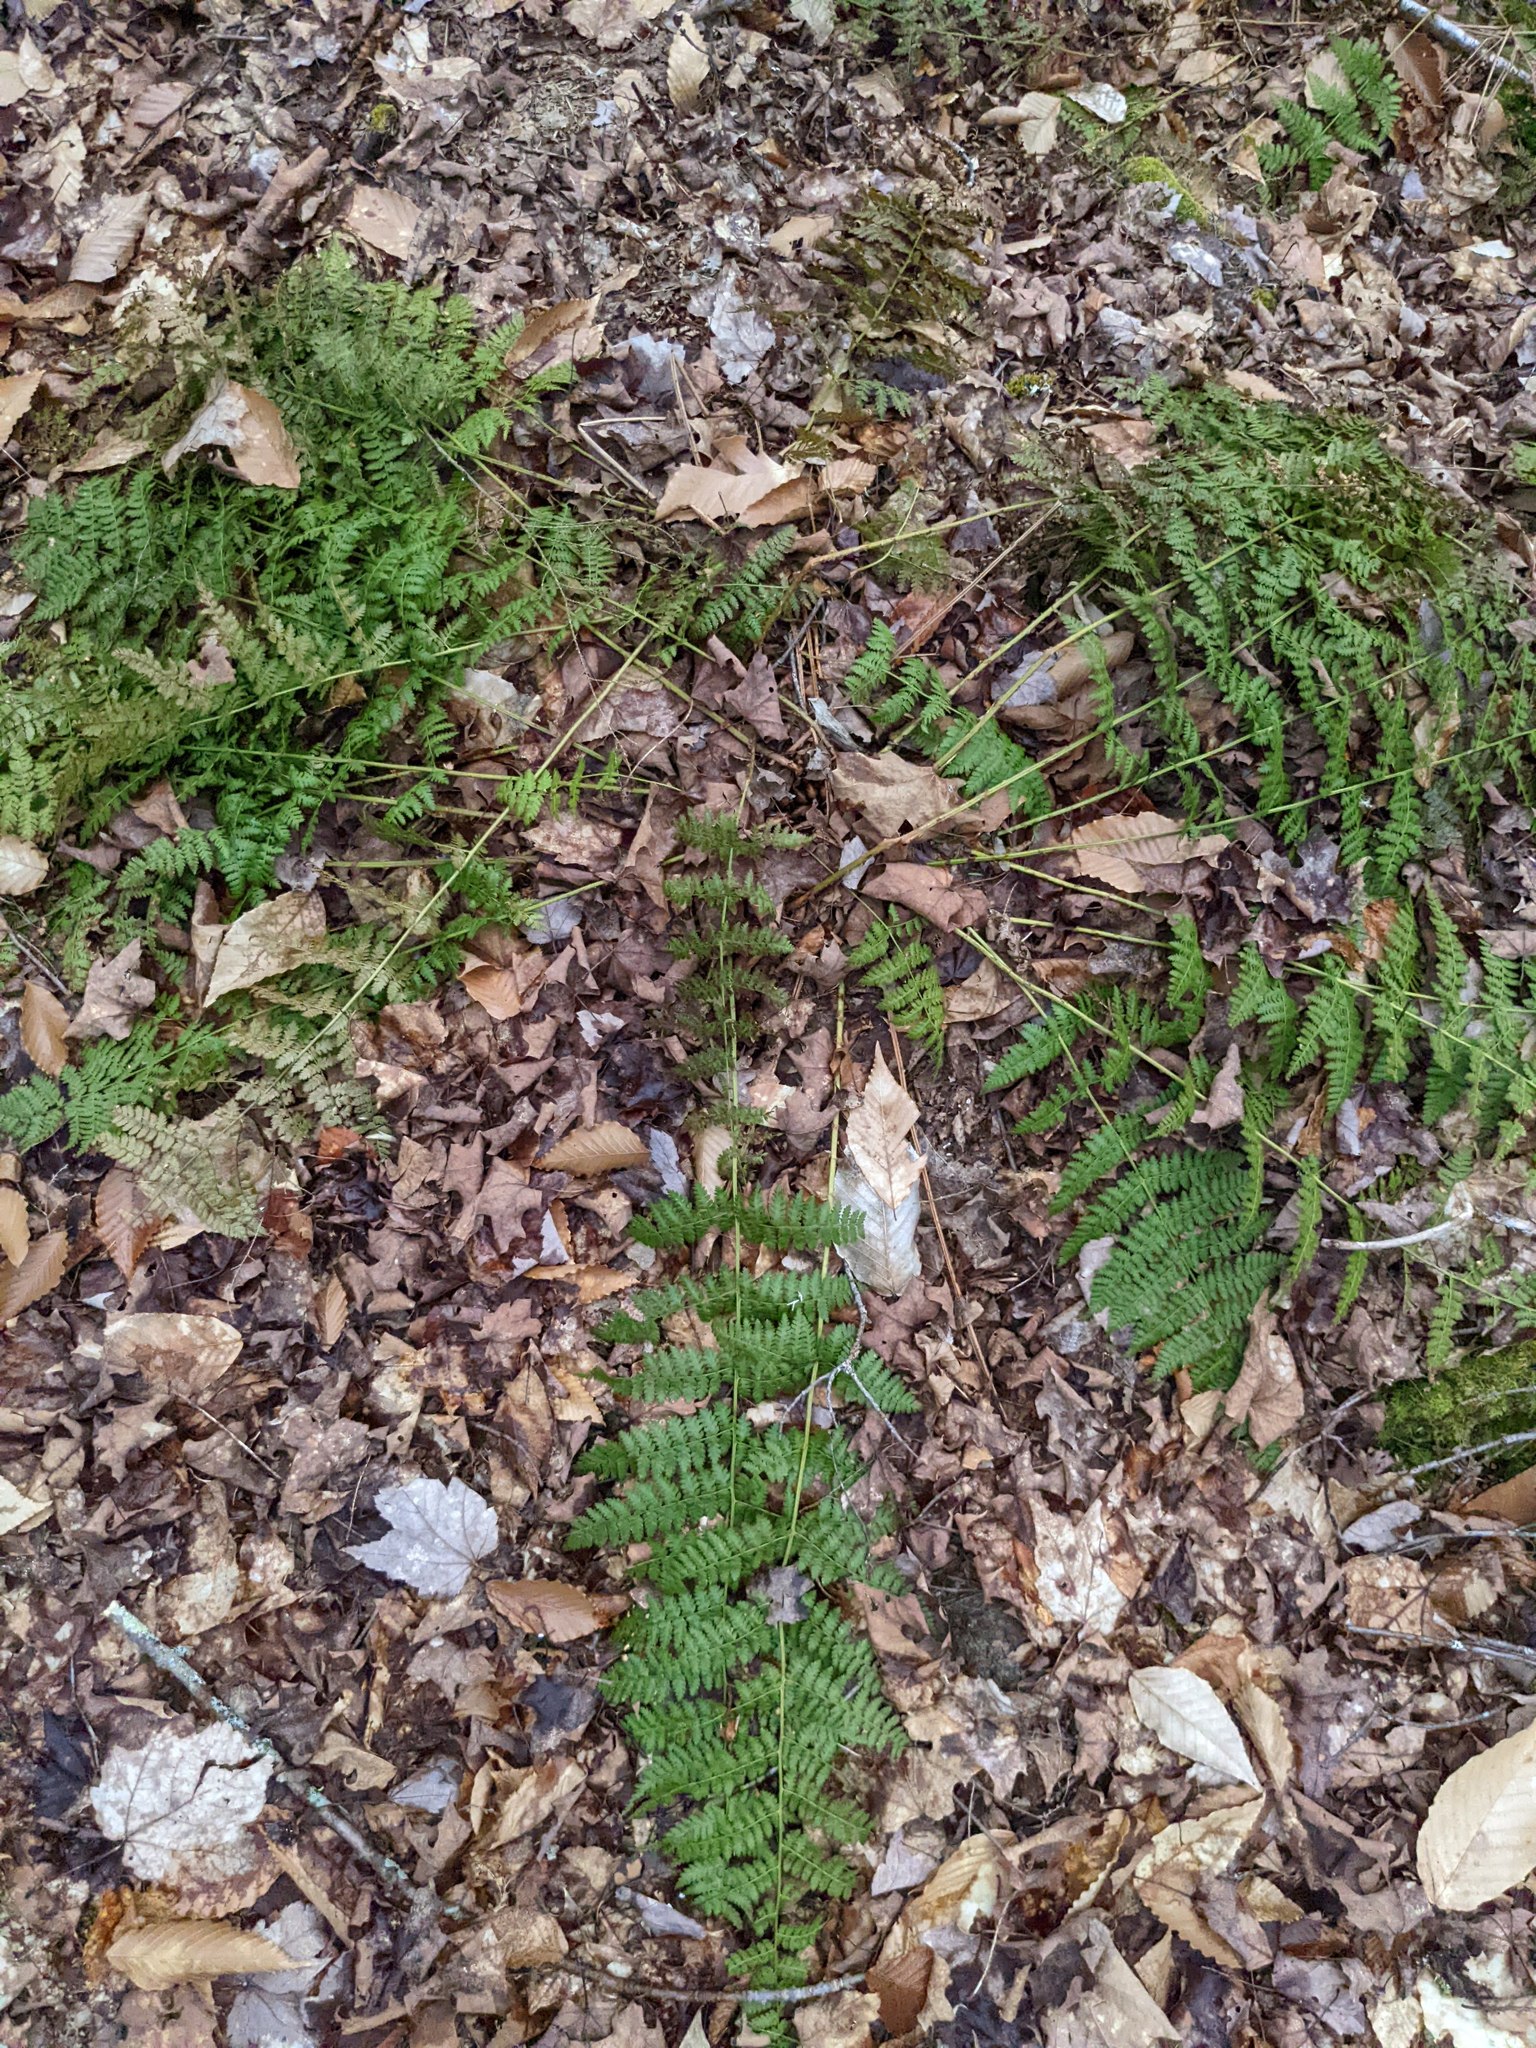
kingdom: Plantae
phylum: Tracheophyta
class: Polypodiopsida
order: Polypodiales
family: Dryopteridaceae
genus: Dryopteris
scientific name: Dryopteris intermedia
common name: Evergreen wood fern
